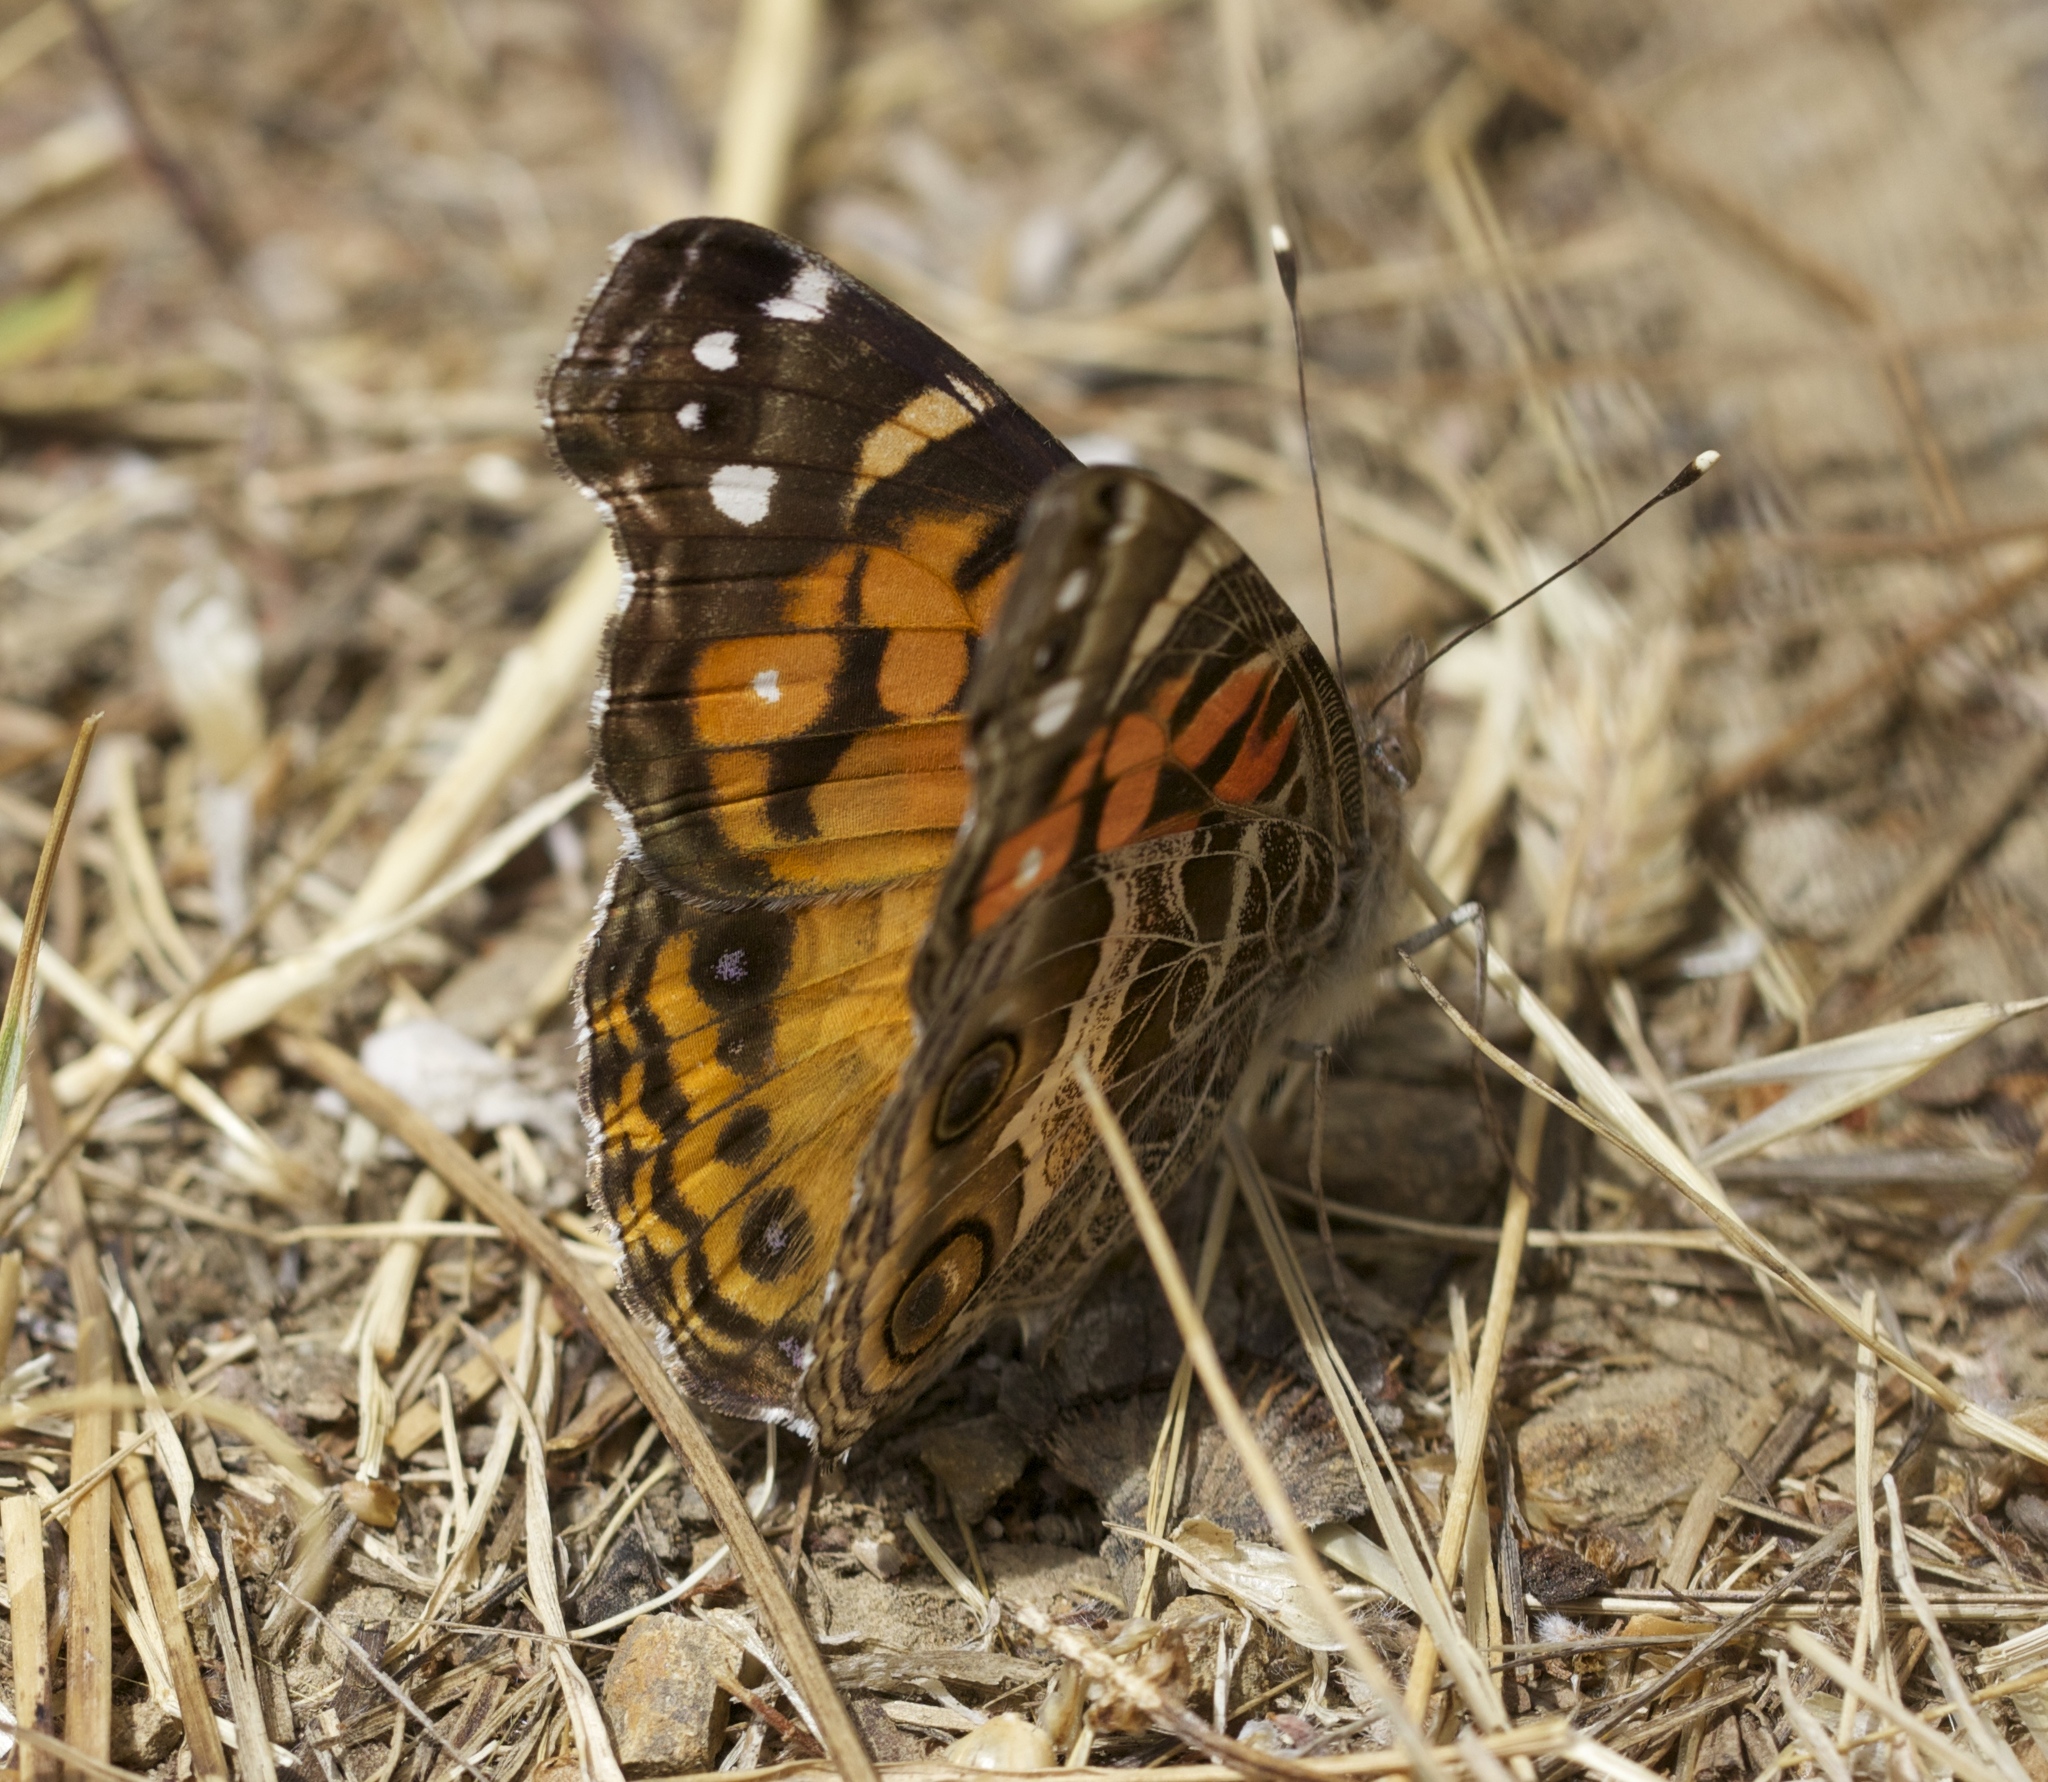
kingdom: Animalia
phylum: Arthropoda
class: Insecta
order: Lepidoptera
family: Nymphalidae
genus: Vanessa
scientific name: Vanessa virginiensis
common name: American lady
